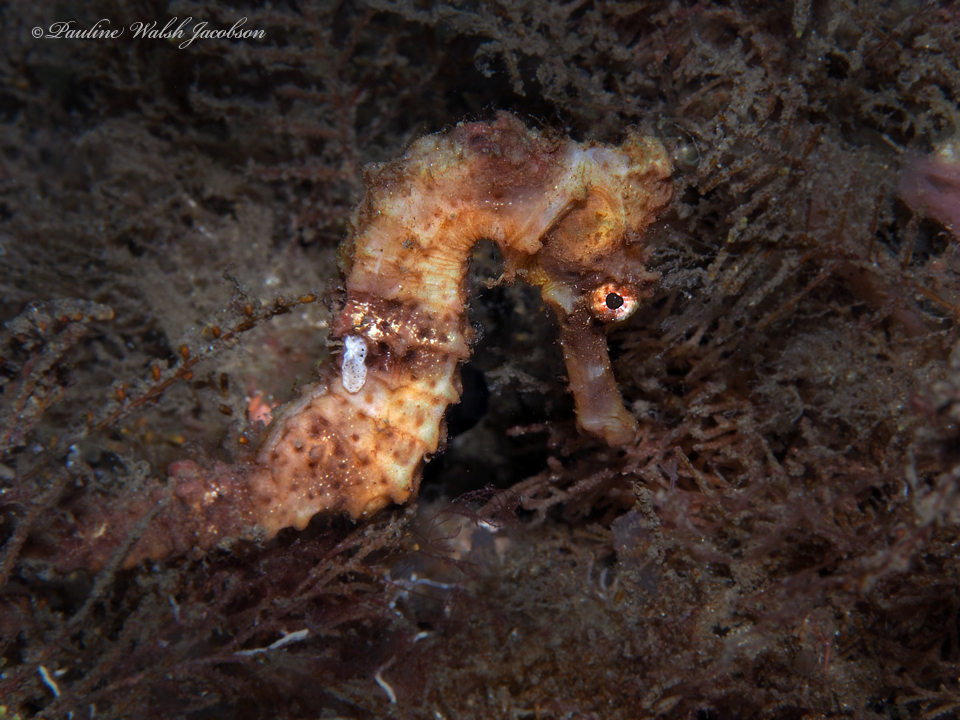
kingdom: Animalia
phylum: Chordata
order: Syngnathiformes
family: Syngnathidae
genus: Hippocampus
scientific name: Hippocampus reidi
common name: Slender seahorse
